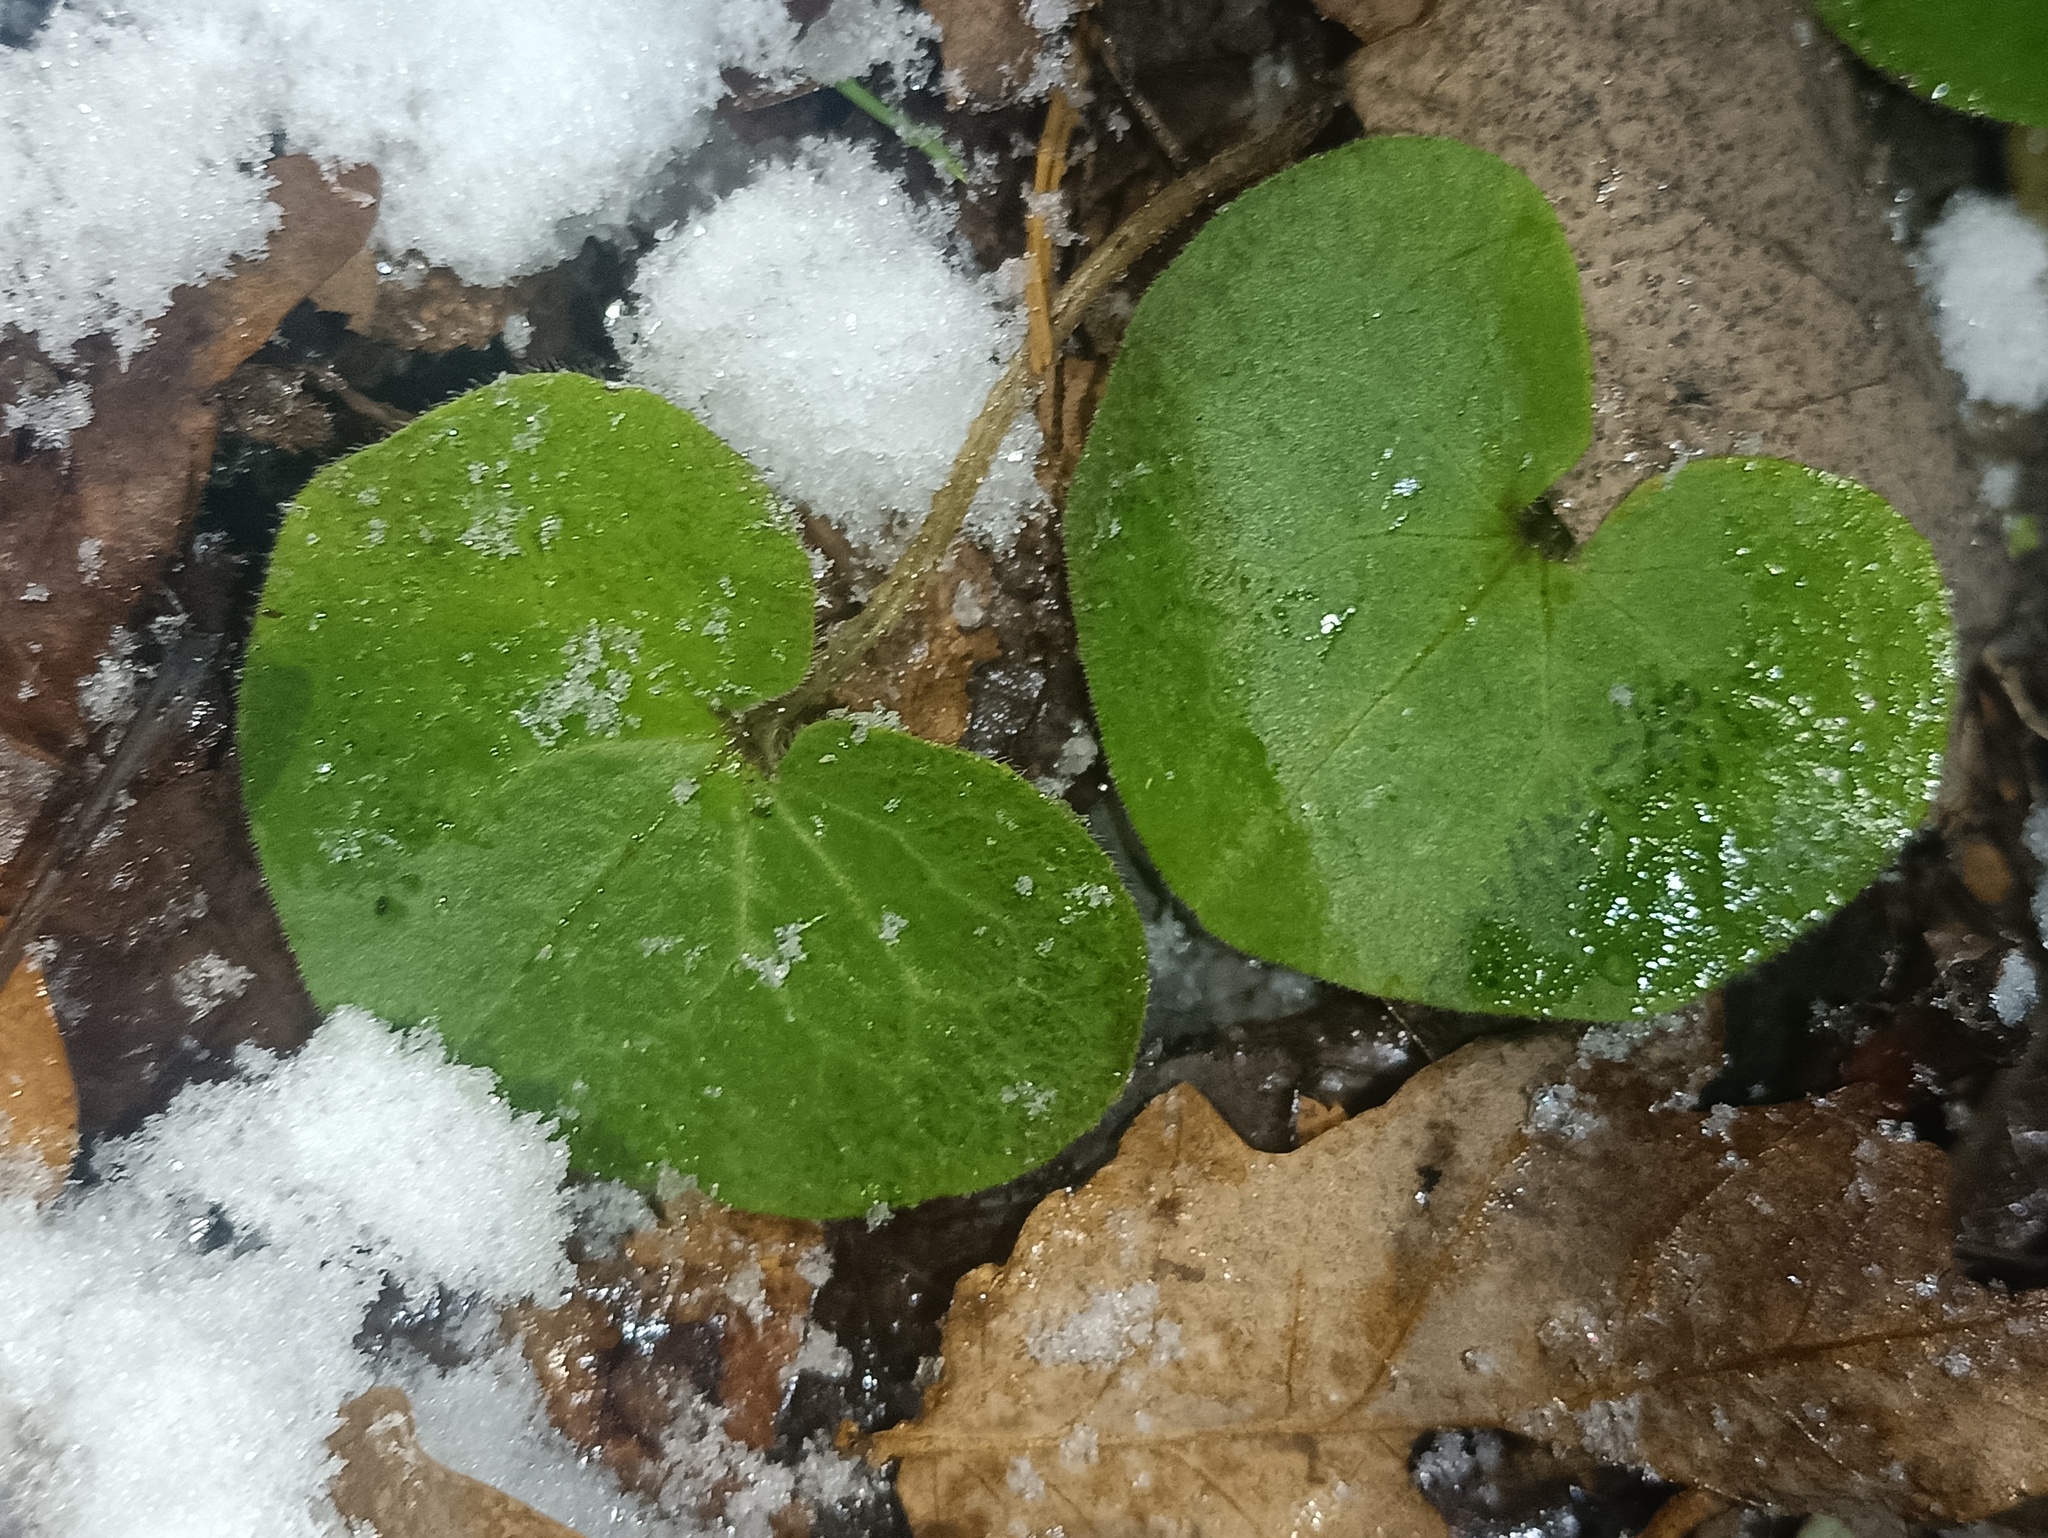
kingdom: Plantae
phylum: Tracheophyta
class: Magnoliopsida
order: Piperales
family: Aristolochiaceae
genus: Asarum
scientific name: Asarum europaeum
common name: Asarabacca
